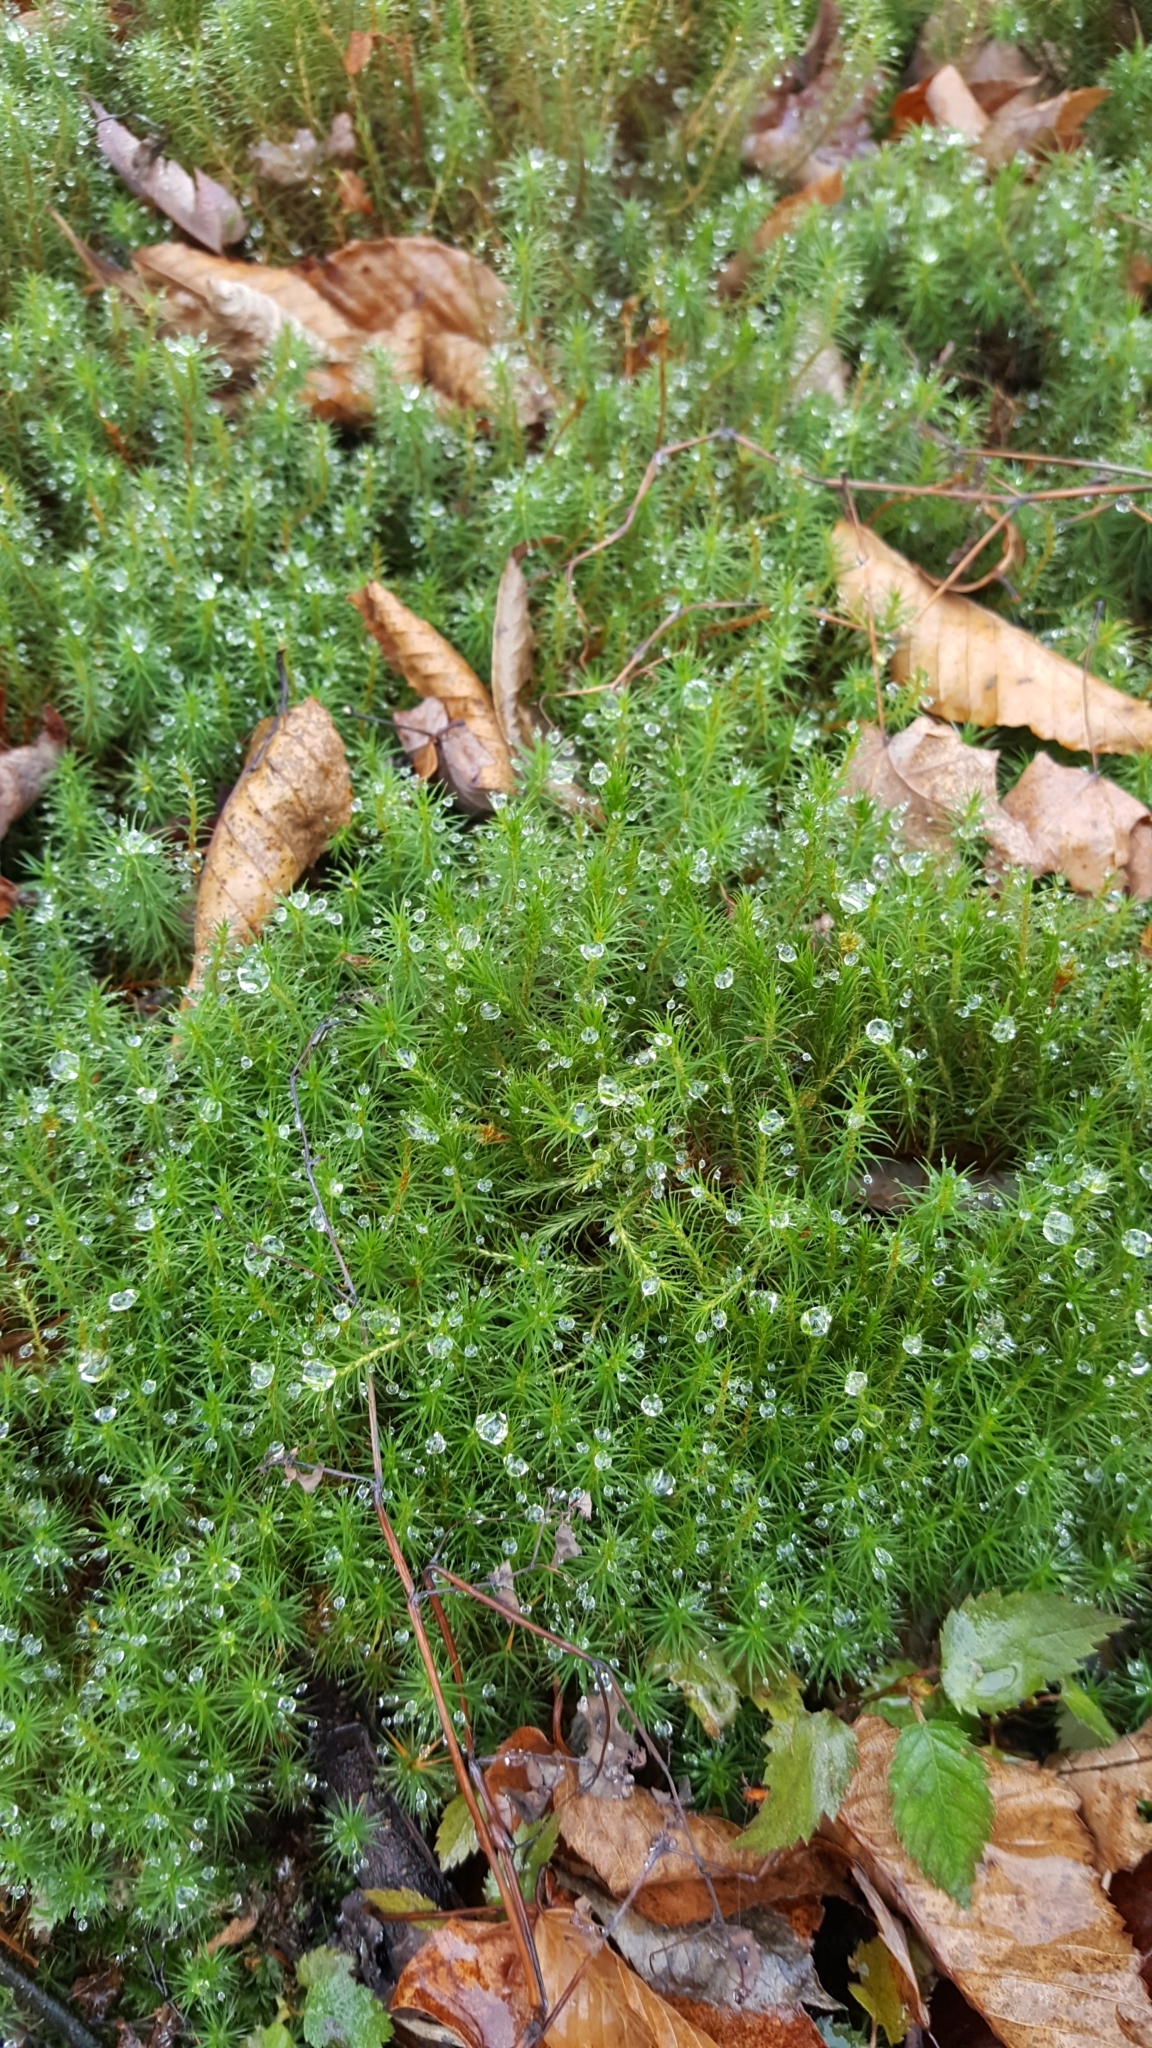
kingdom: Plantae
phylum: Bryophyta
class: Polytrichopsida
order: Polytrichales
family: Polytrichaceae
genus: Polytrichum
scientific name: Polytrichum
